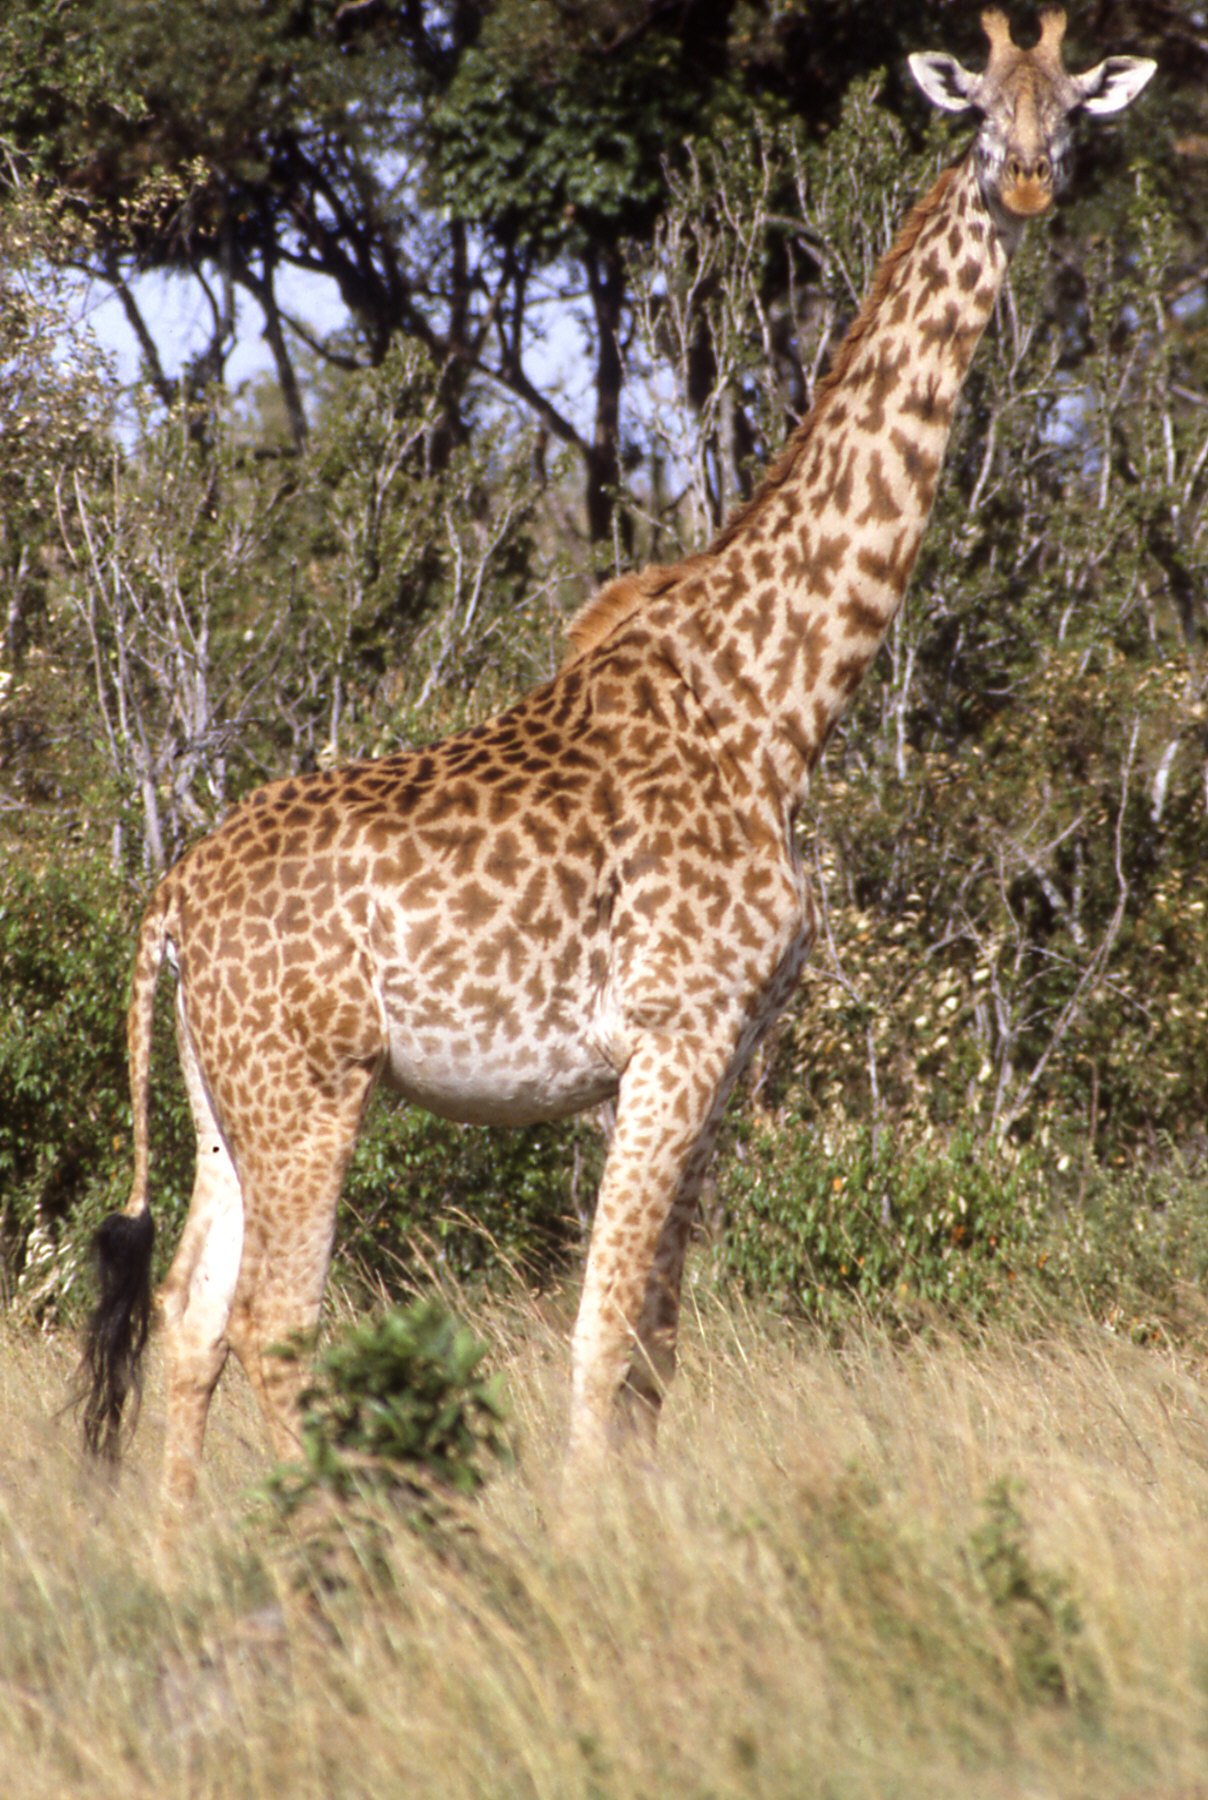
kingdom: Animalia
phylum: Chordata
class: Mammalia
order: Artiodactyla
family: Giraffidae
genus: Giraffa
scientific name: Giraffa tippelskirchi
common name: Masai giraffe
